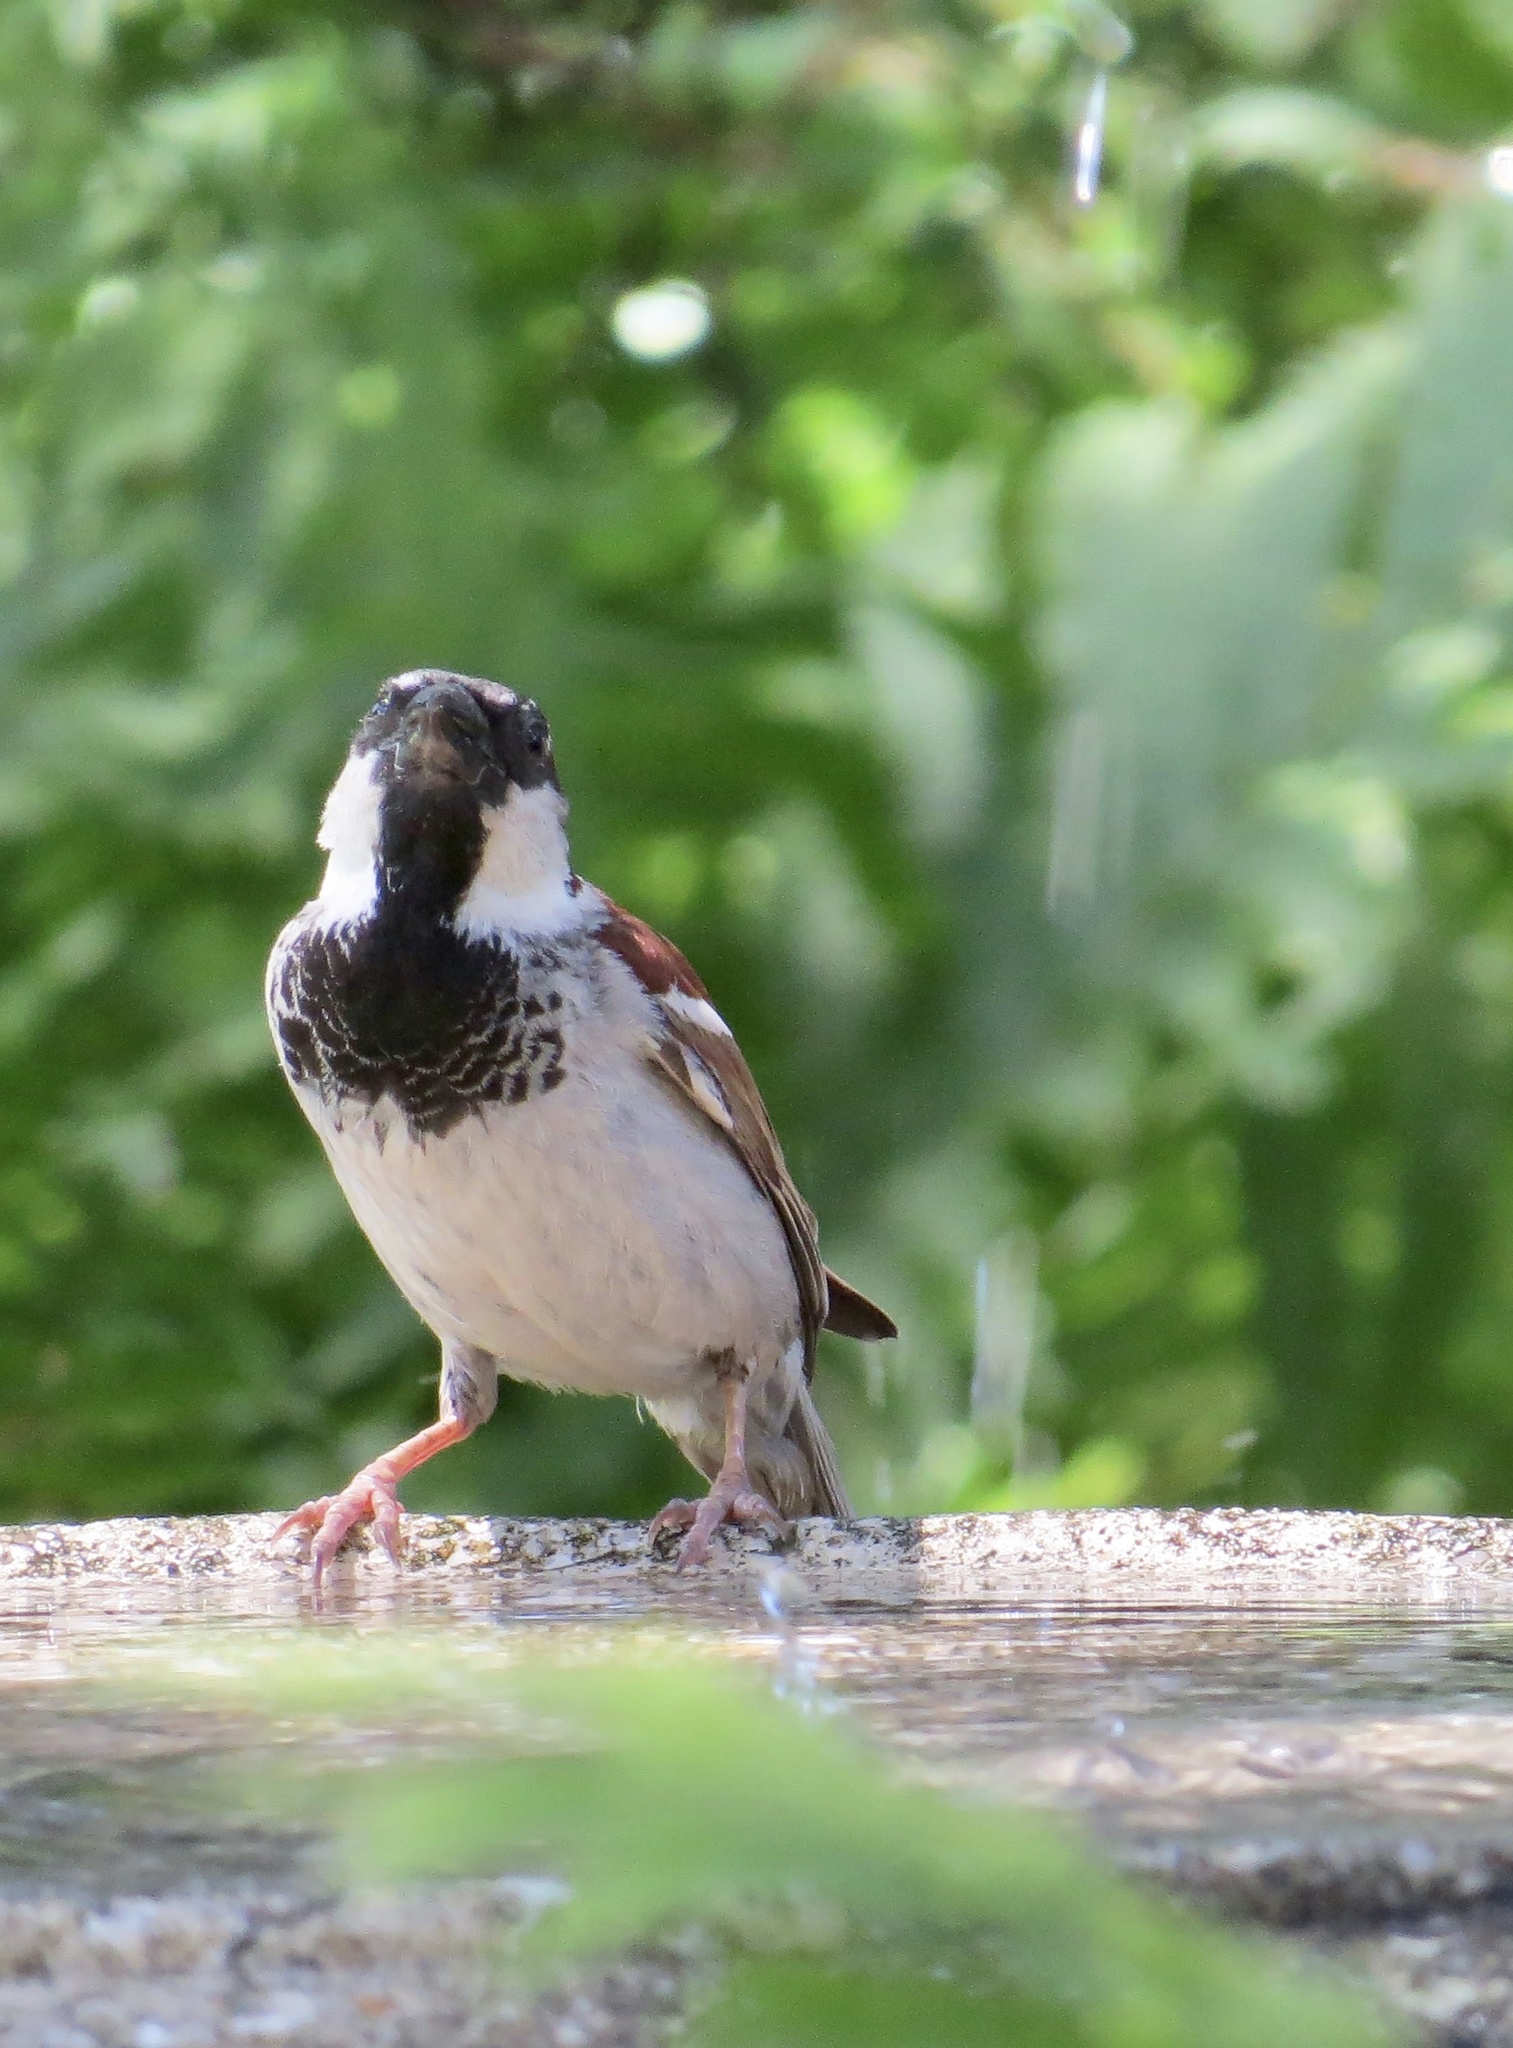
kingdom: Animalia
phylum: Chordata
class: Aves
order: Passeriformes
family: Passeridae
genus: Passer
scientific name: Passer domesticus
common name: House sparrow
